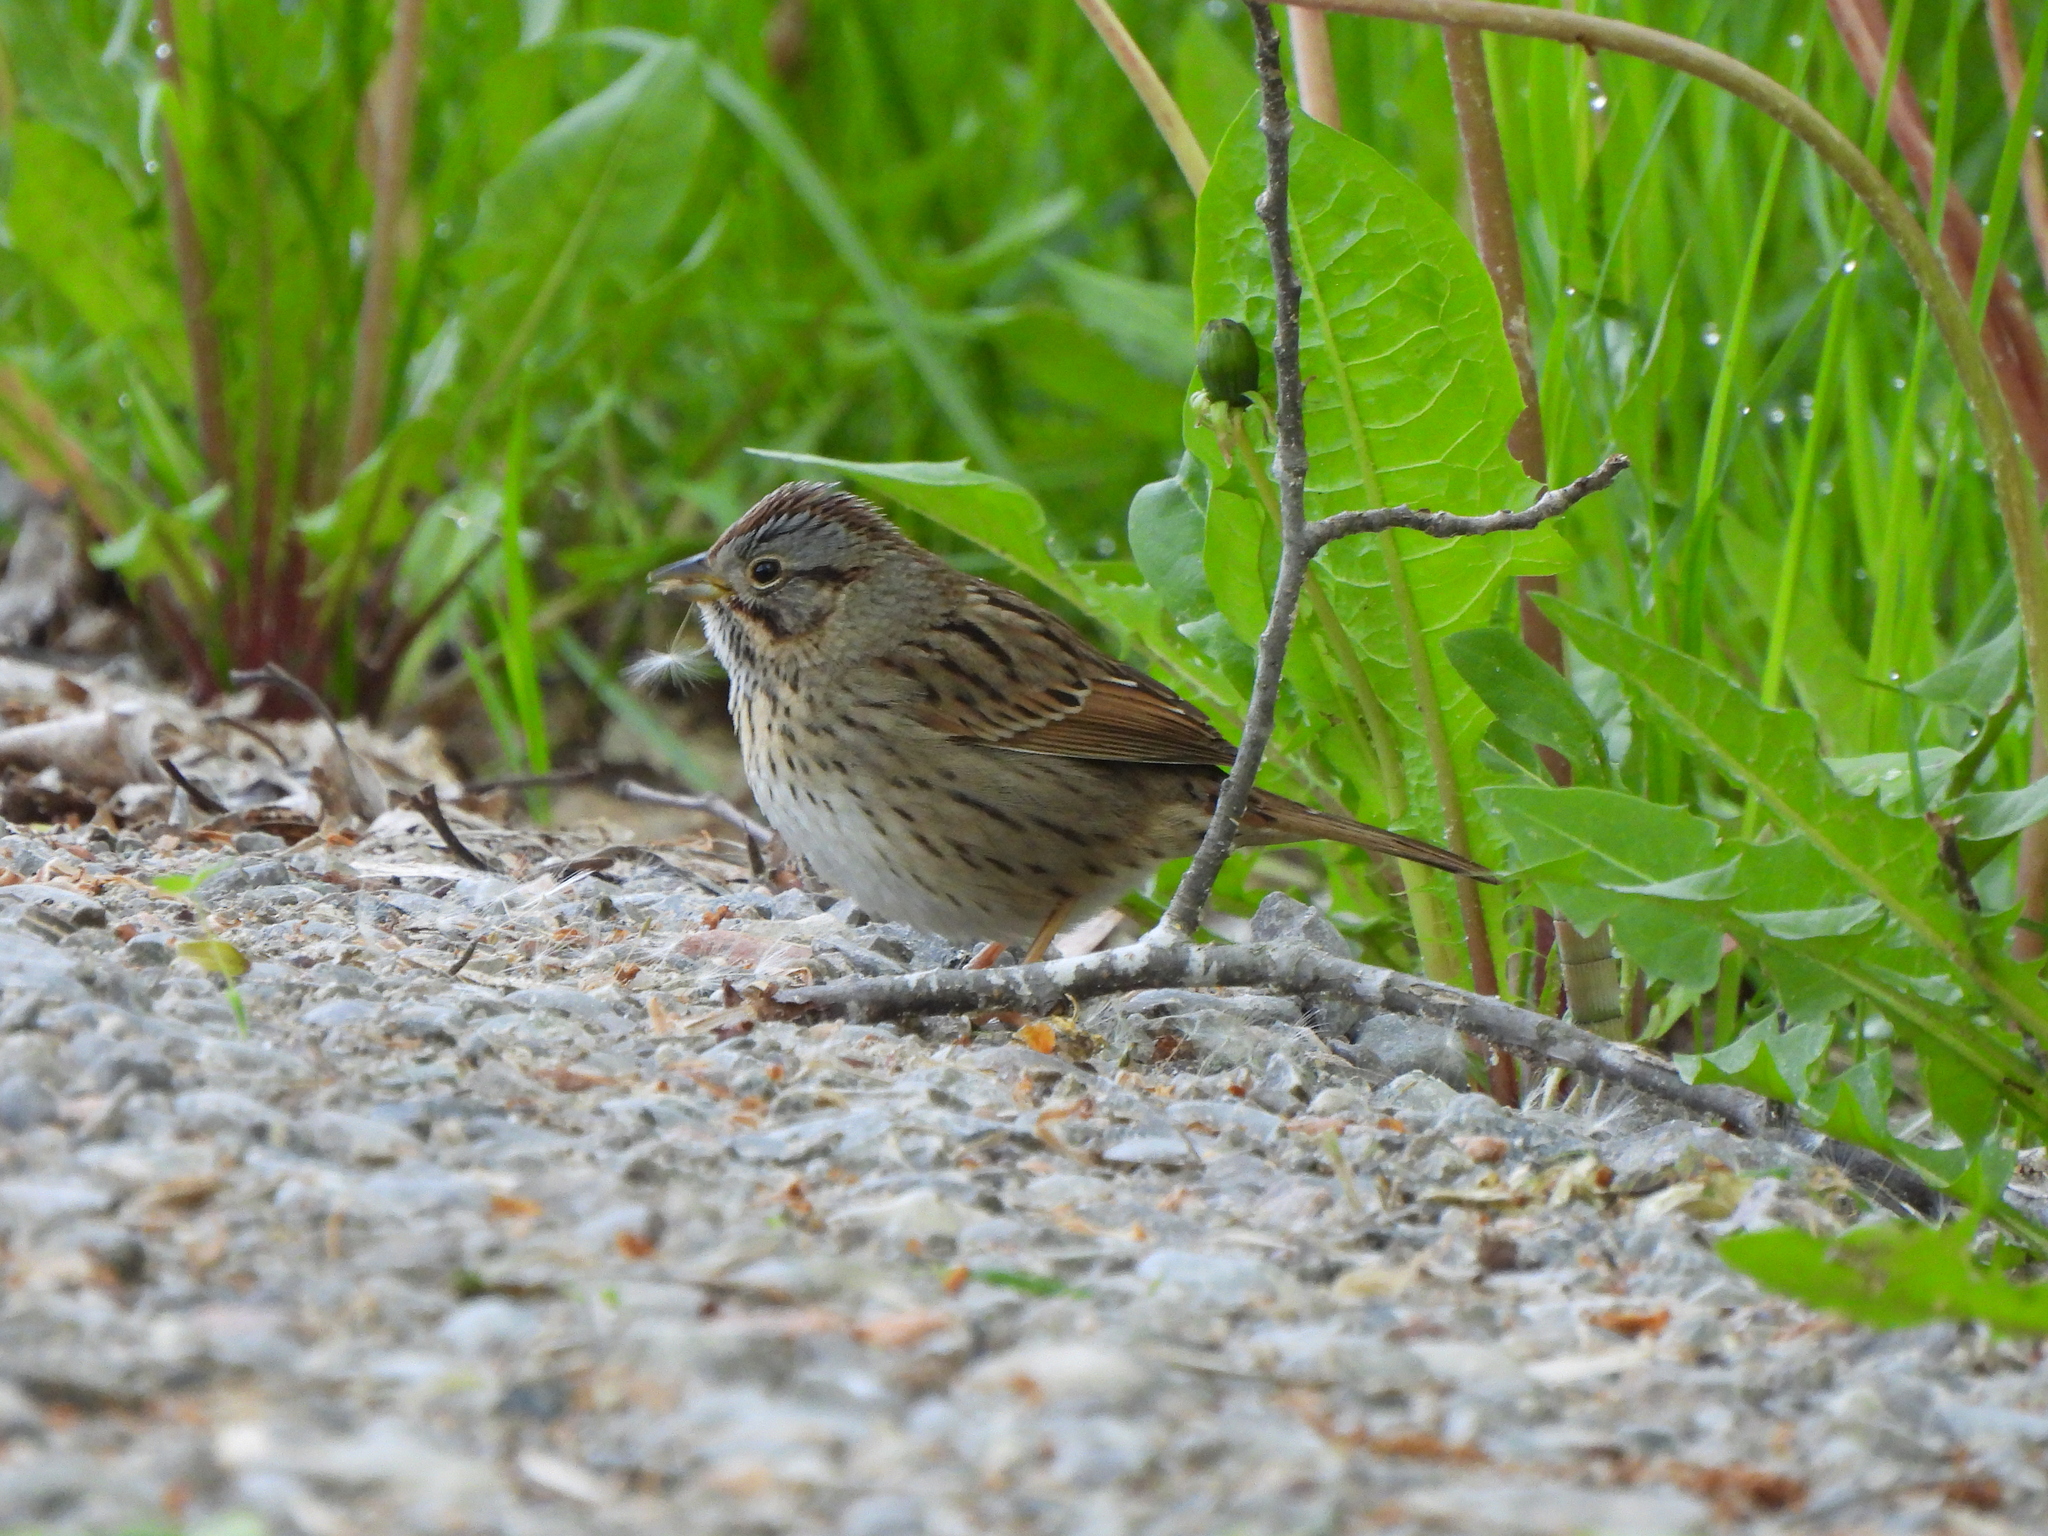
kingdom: Animalia
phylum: Chordata
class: Aves
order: Passeriformes
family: Passerellidae
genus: Melospiza
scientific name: Melospiza lincolnii
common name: Lincoln's sparrow
